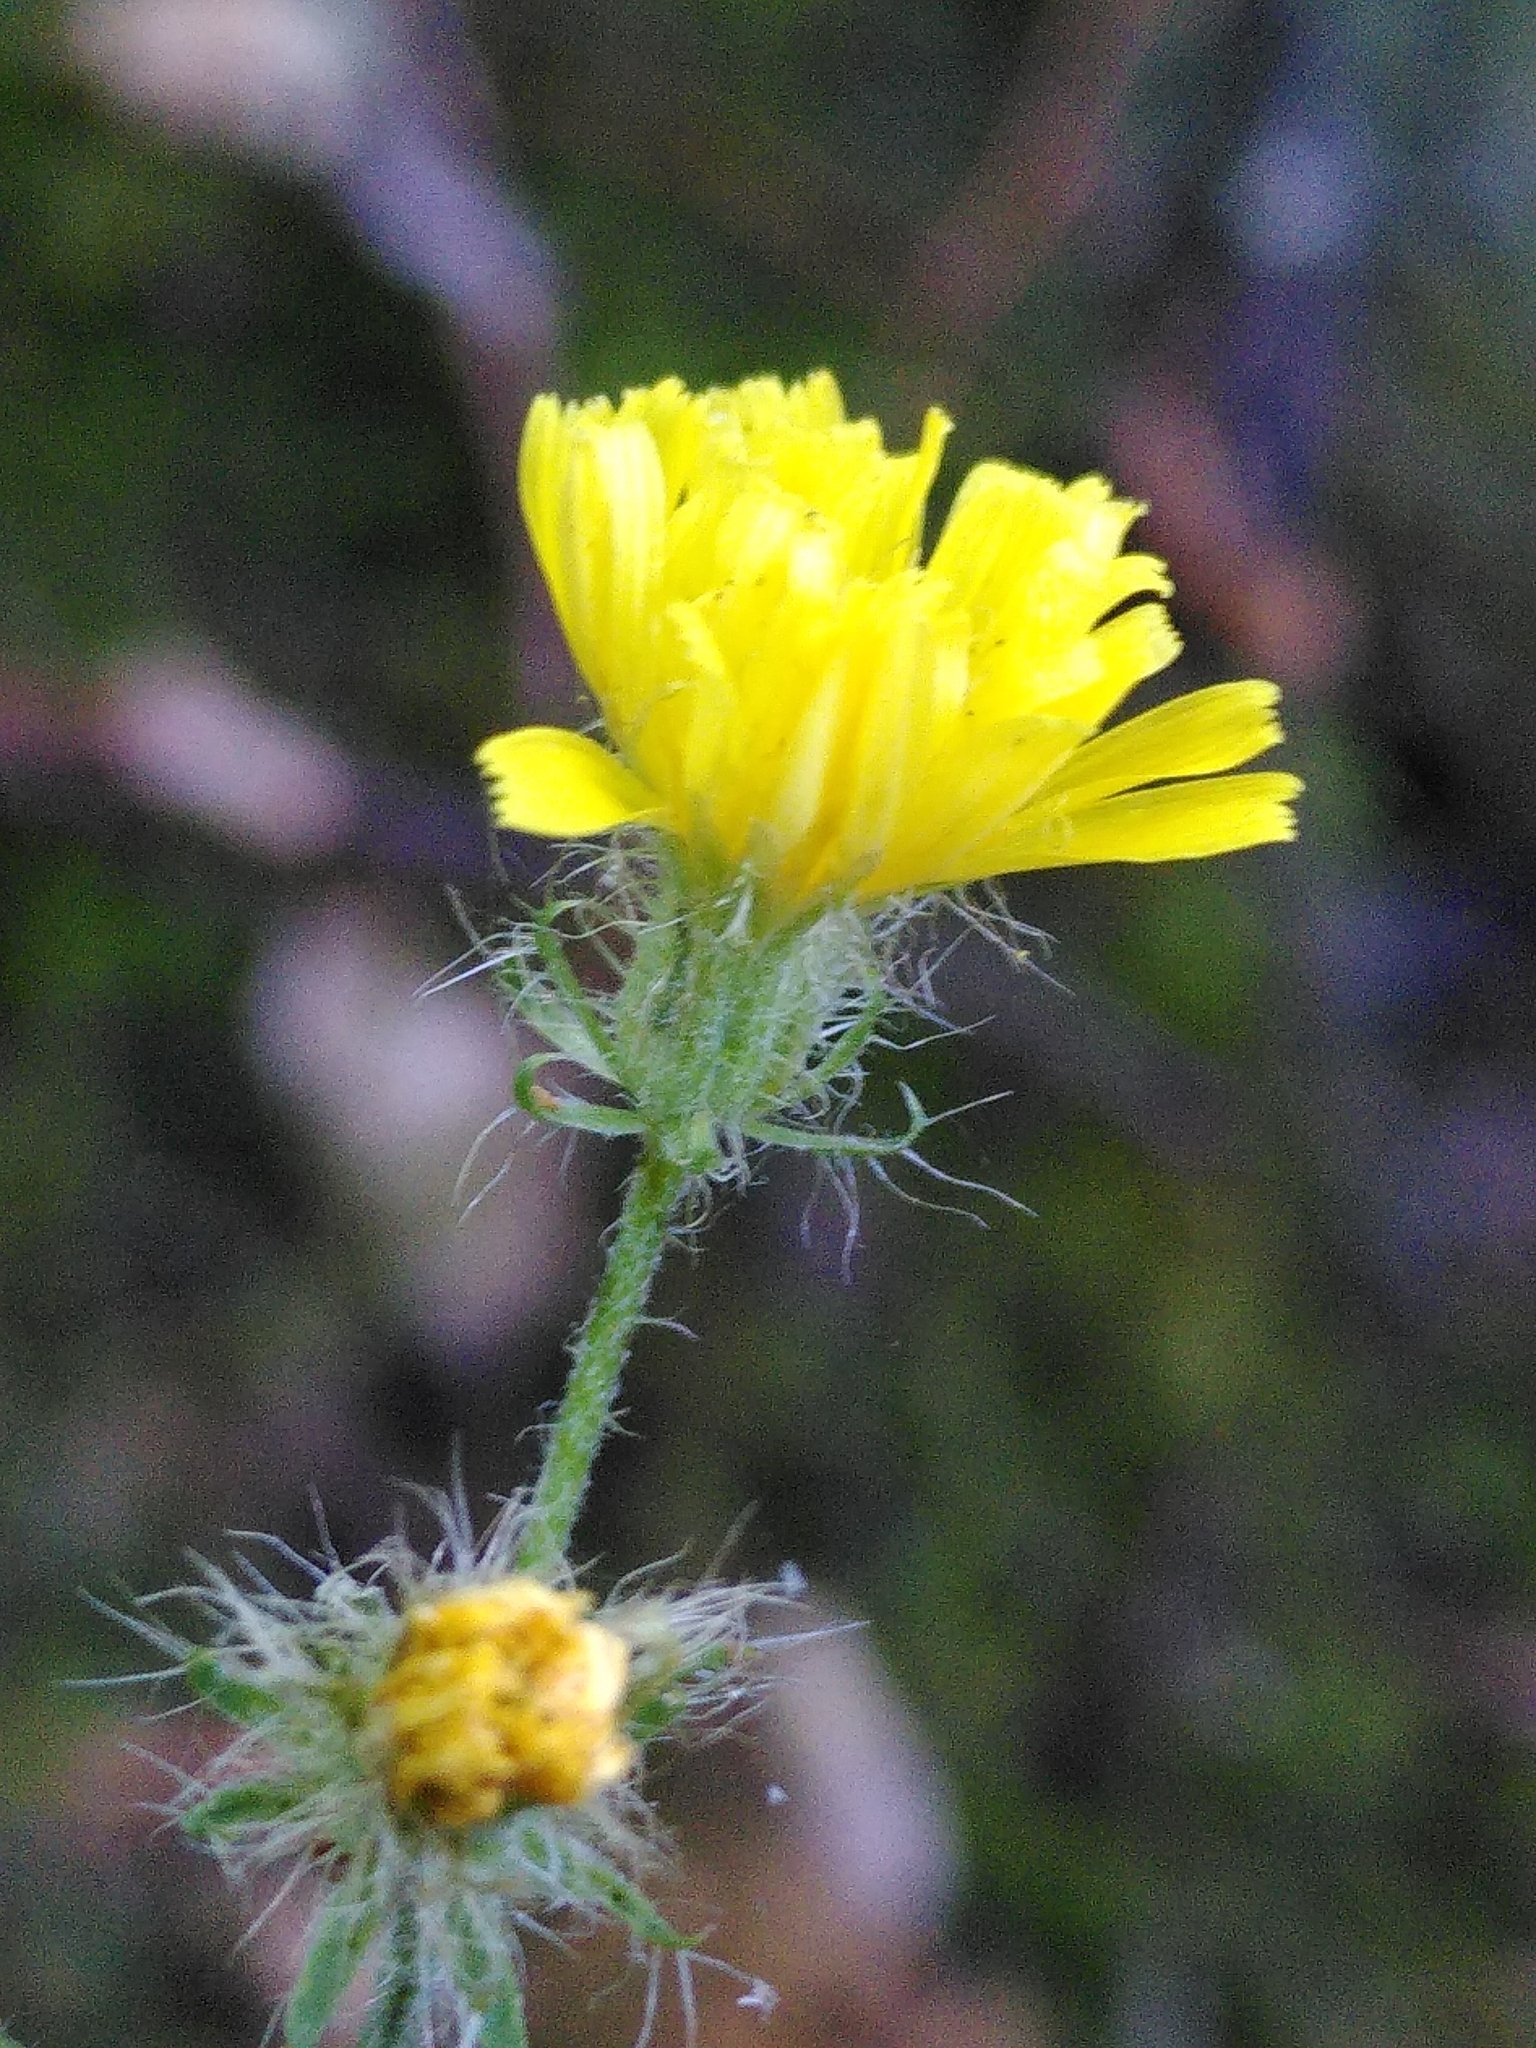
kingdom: Plantae
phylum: Tracheophyta
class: Magnoliopsida
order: Asterales
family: Asteraceae
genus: Crepis
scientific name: Crepis setosa
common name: Bristly hawk's-beard
